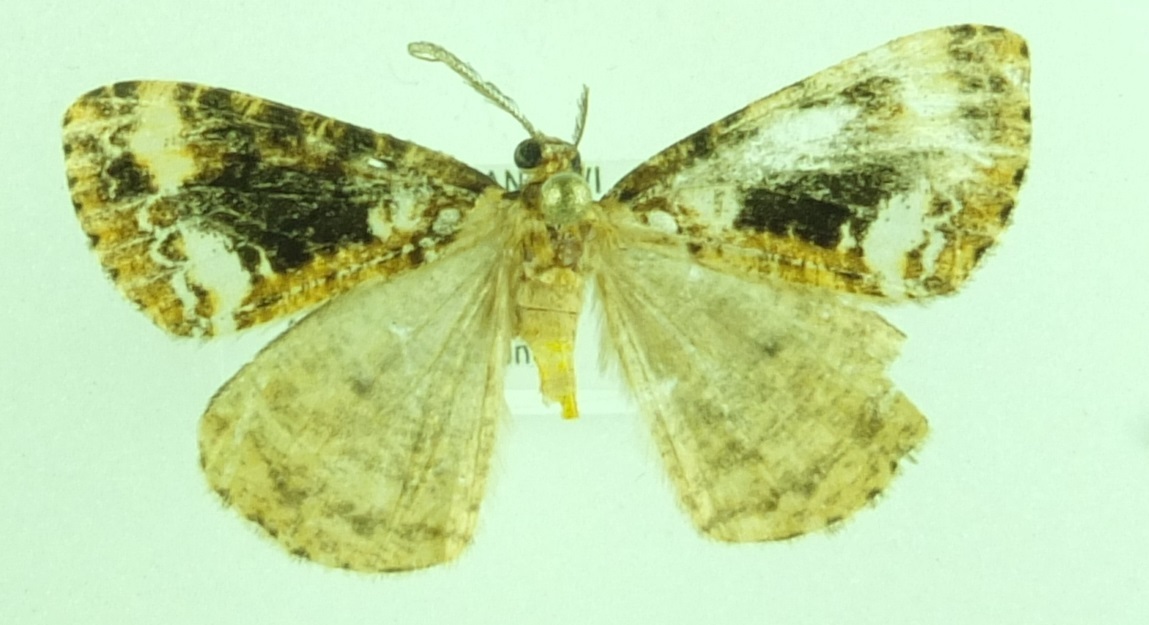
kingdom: Animalia
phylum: Arthropoda
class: Insecta
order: Lepidoptera
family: Geometridae
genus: Pseudocoremia
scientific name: Pseudocoremia leucelaea
